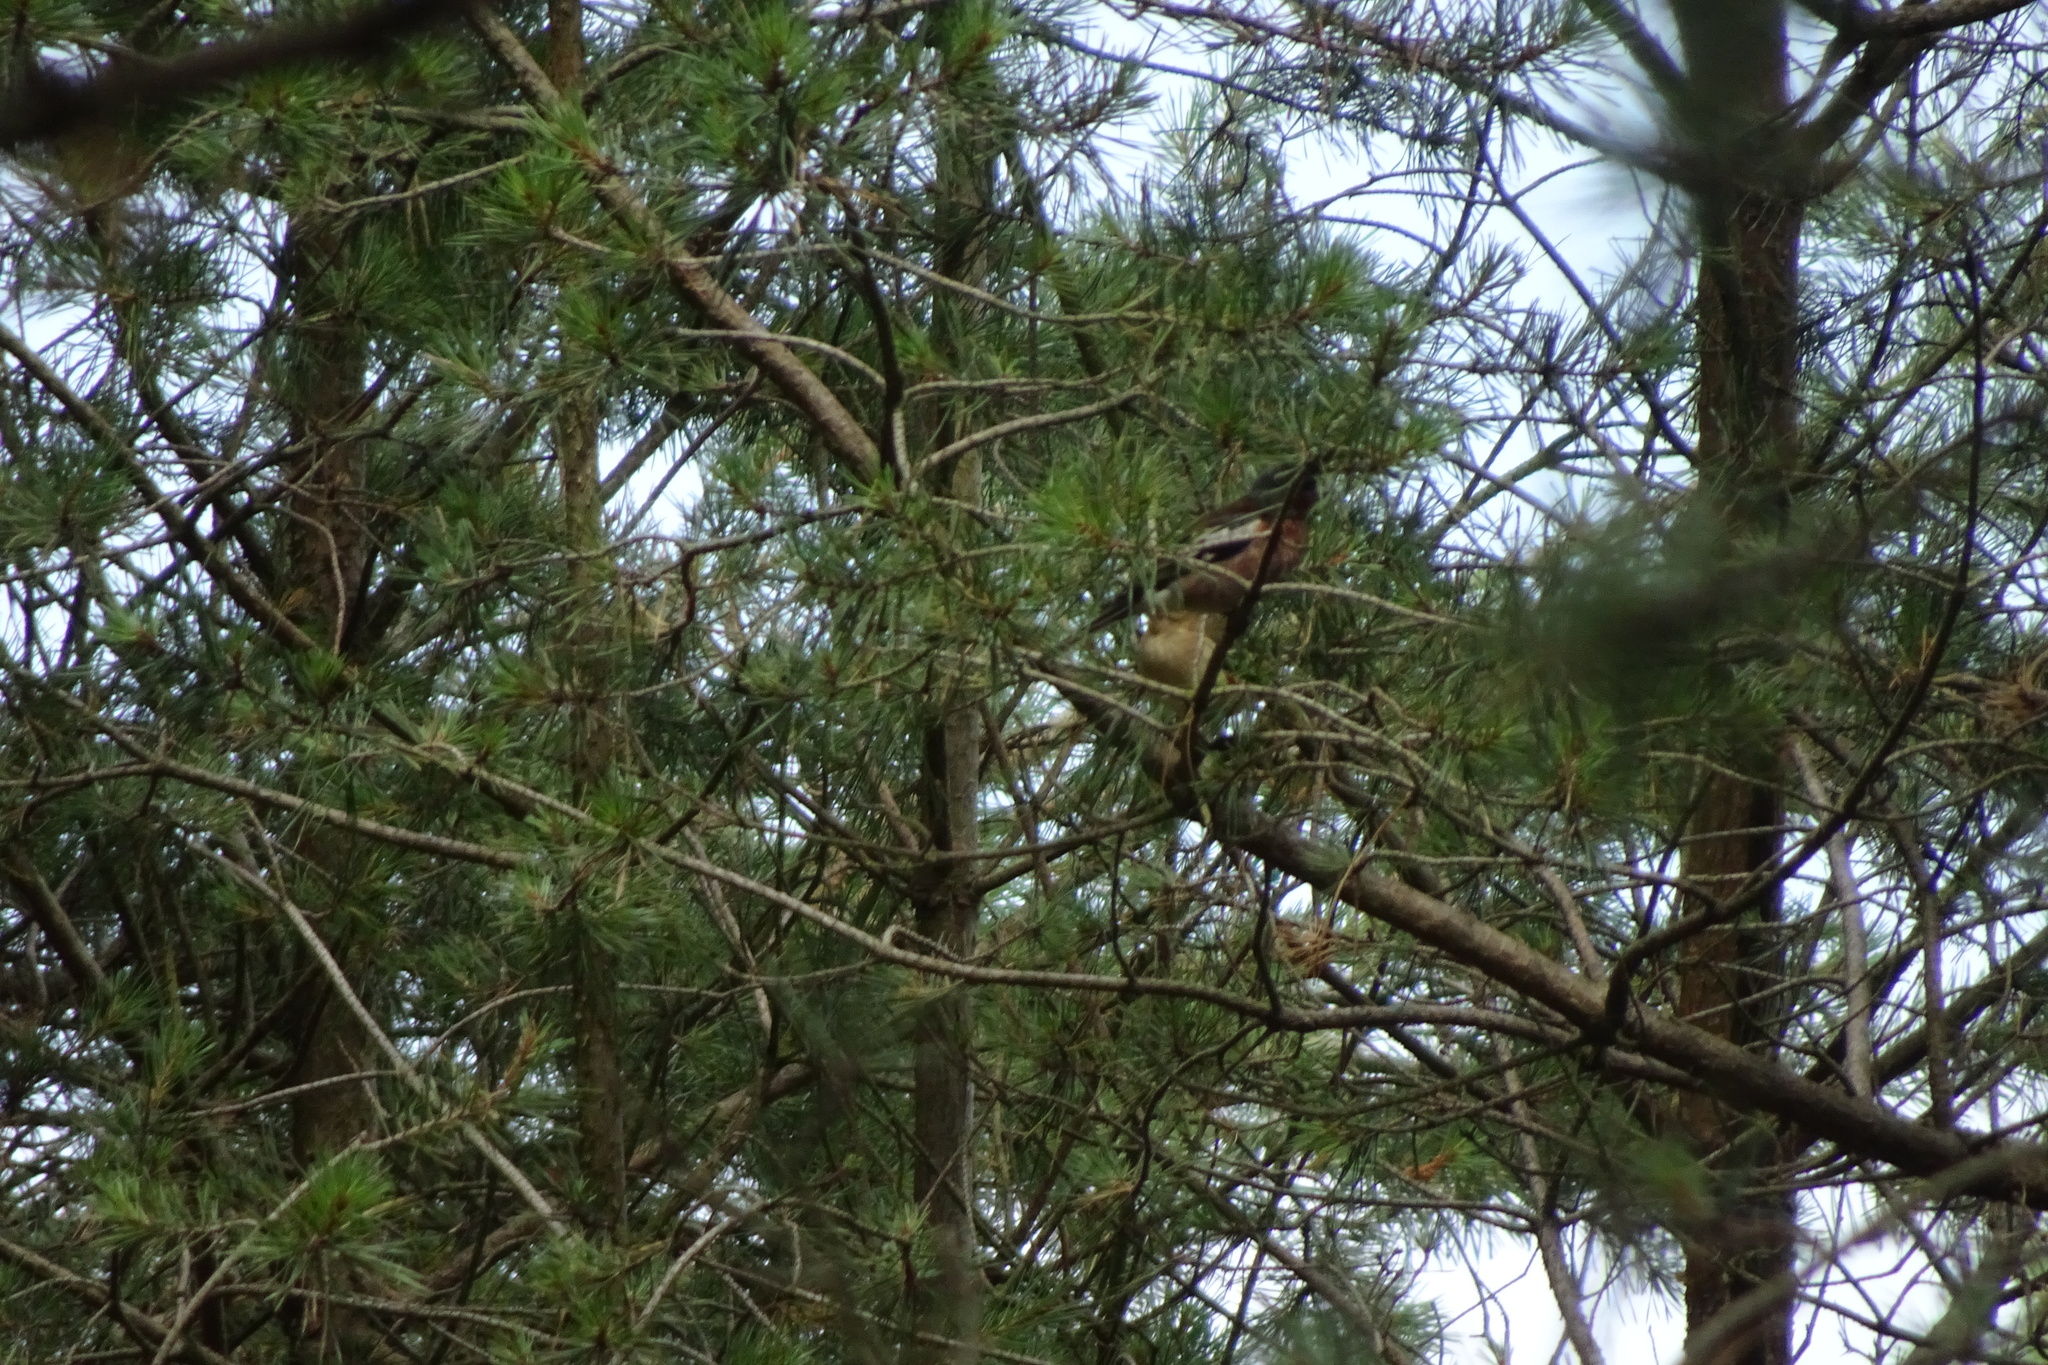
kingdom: Animalia
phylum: Chordata
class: Aves
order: Passeriformes
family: Fringillidae
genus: Fringilla
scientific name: Fringilla coelebs
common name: Common chaffinch
